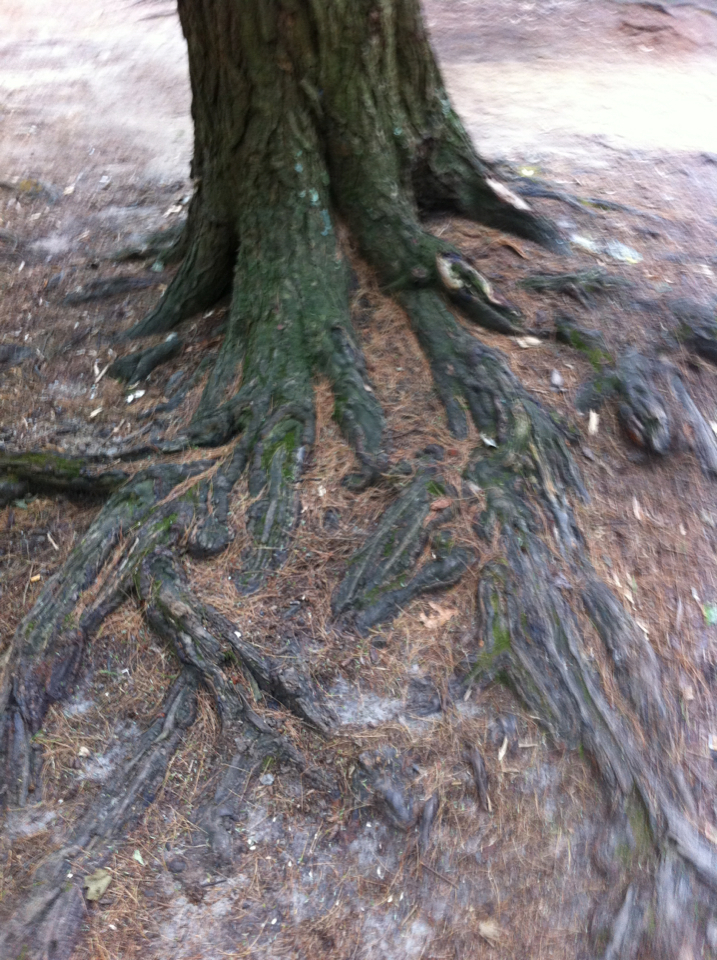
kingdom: Plantae
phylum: Tracheophyta
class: Pinopsida
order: Pinales
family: Pinaceae
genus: Tsuga
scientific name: Tsuga canadensis
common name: Eastern hemlock
